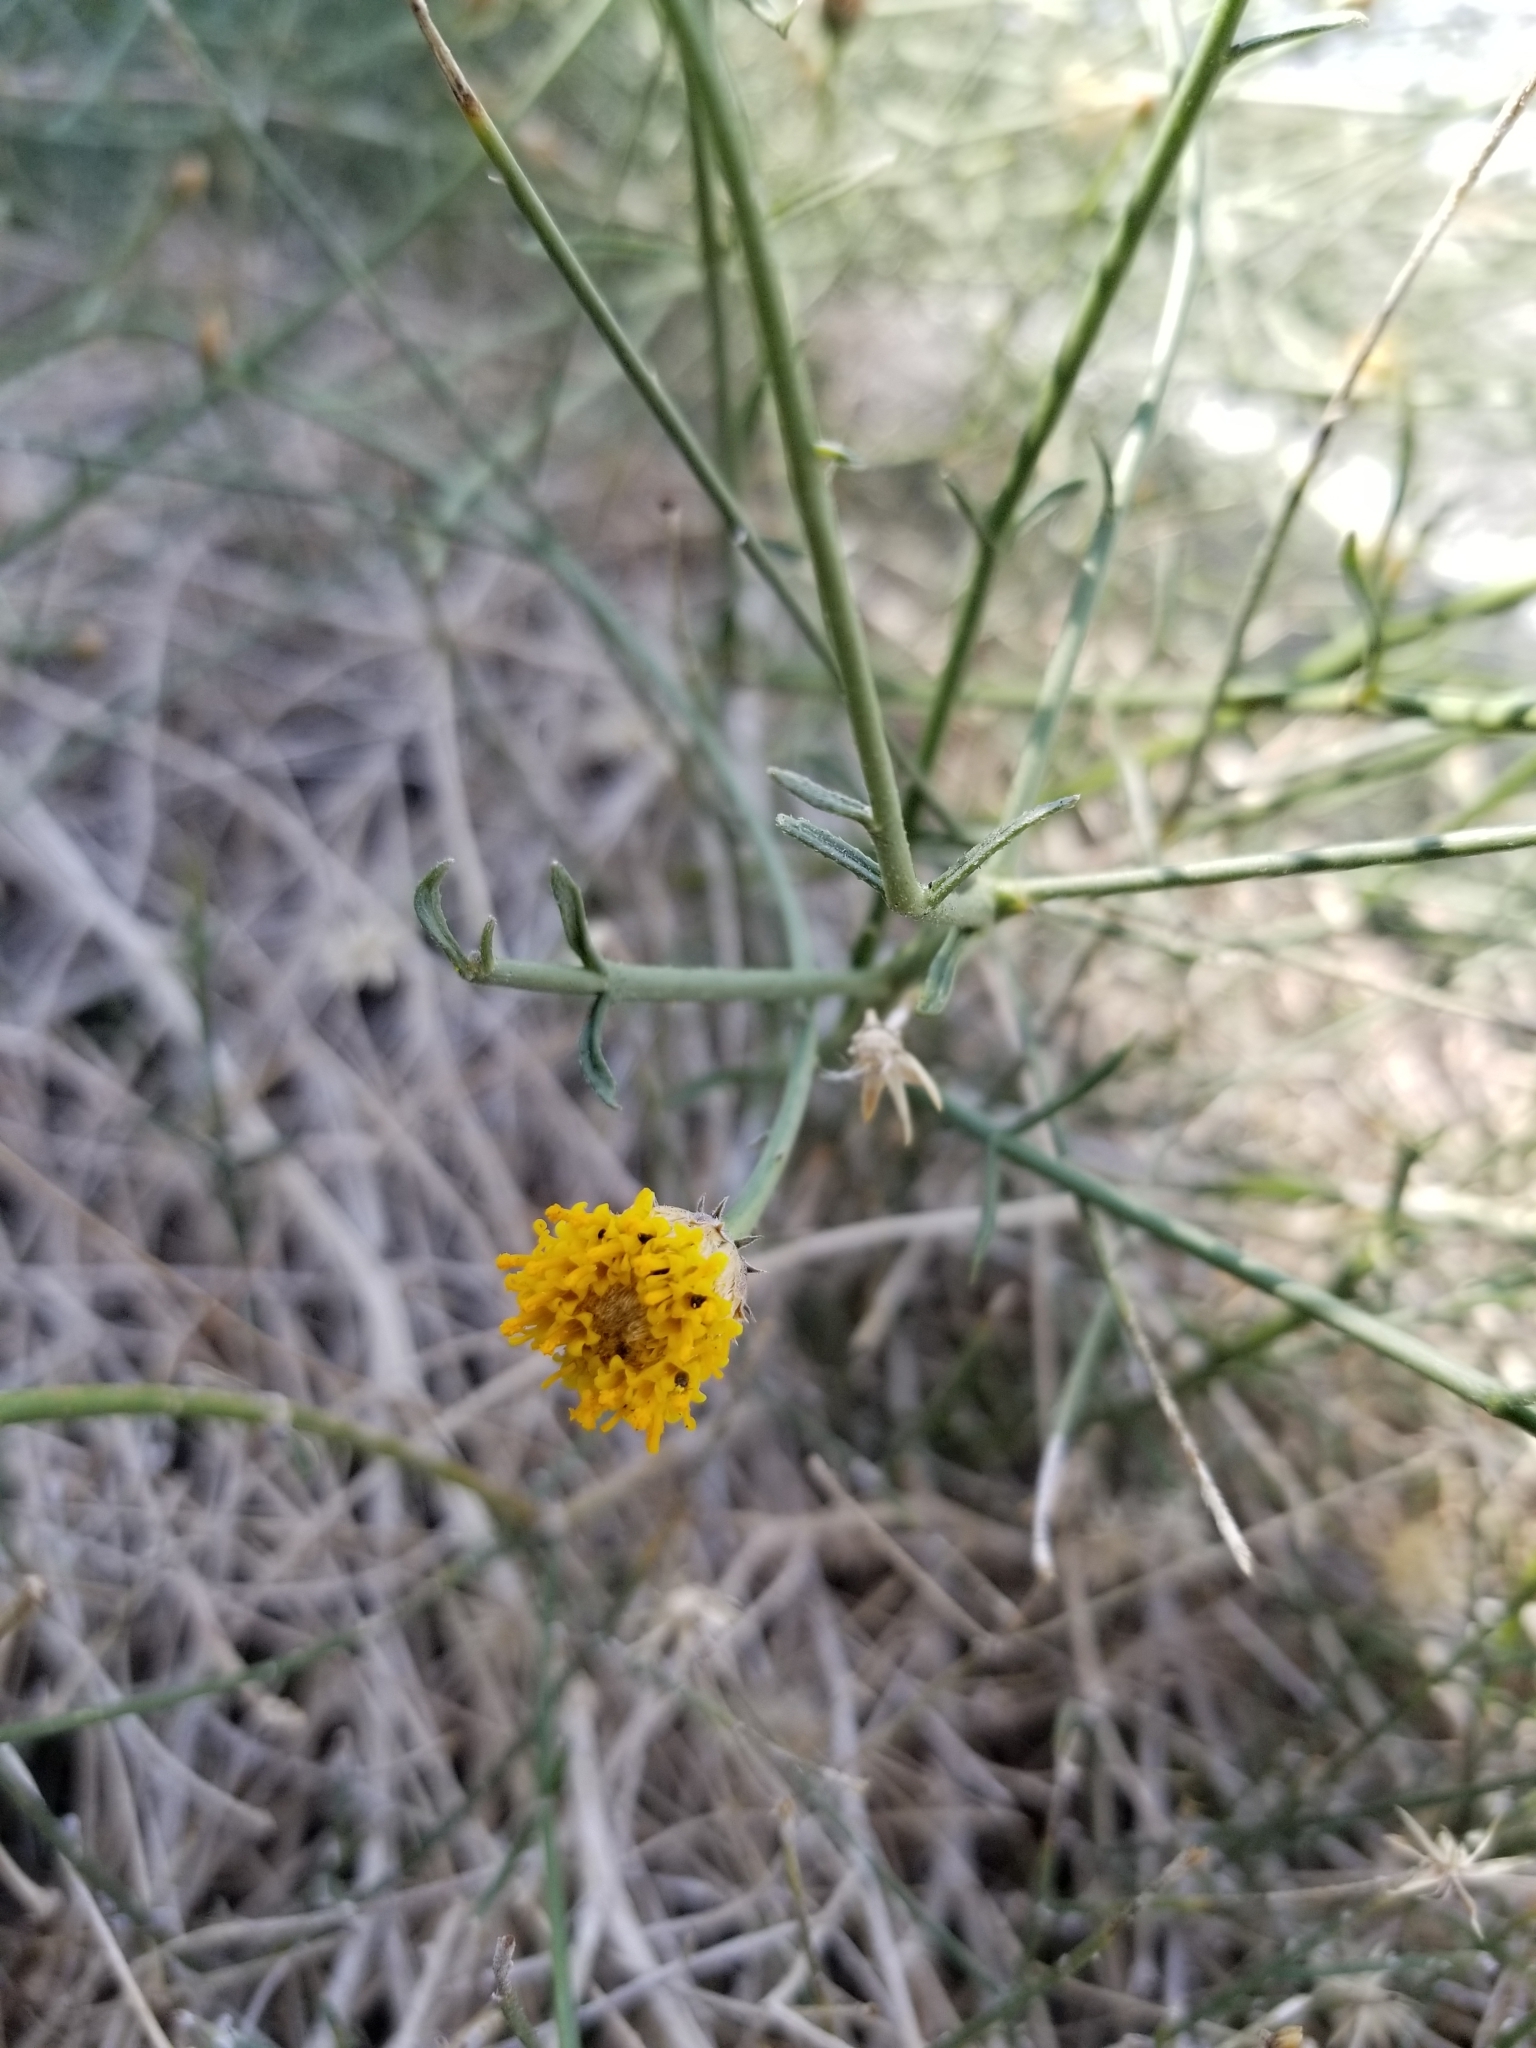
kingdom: Plantae
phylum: Tracheophyta
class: Magnoliopsida
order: Asterales
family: Asteraceae
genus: Bebbia
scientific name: Bebbia juncea
